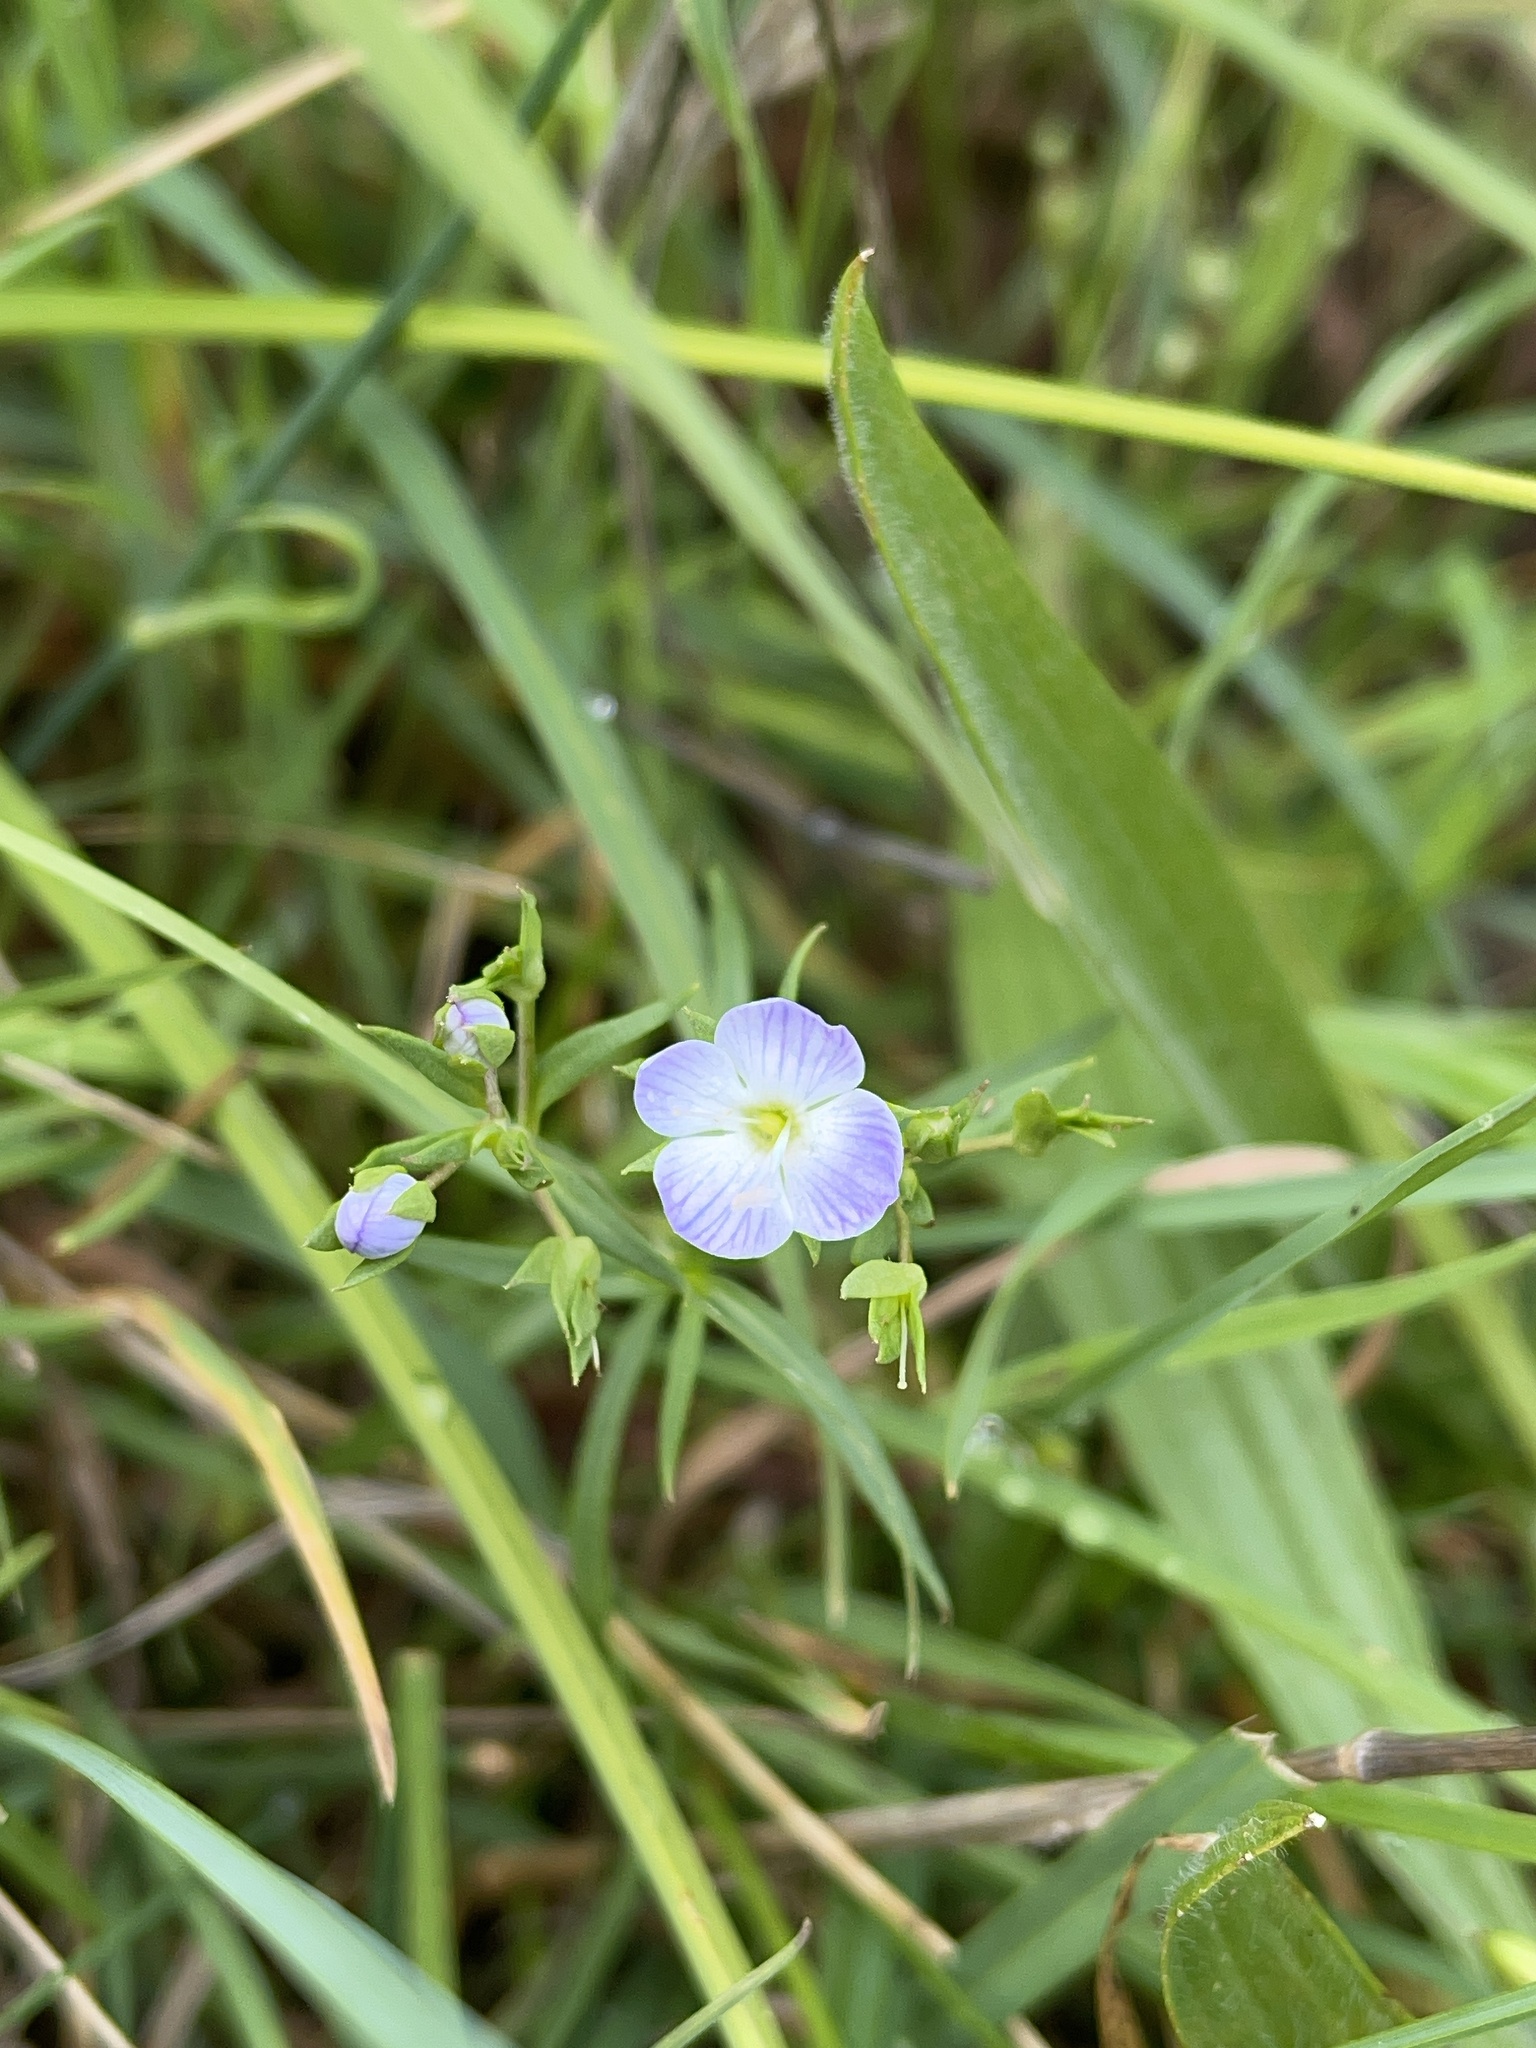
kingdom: Plantae
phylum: Tracheophyta
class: Magnoliopsida
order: Lamiales
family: Plantaginaceae
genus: Veronica
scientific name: Veronica gracilis
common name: Slender speedwell
